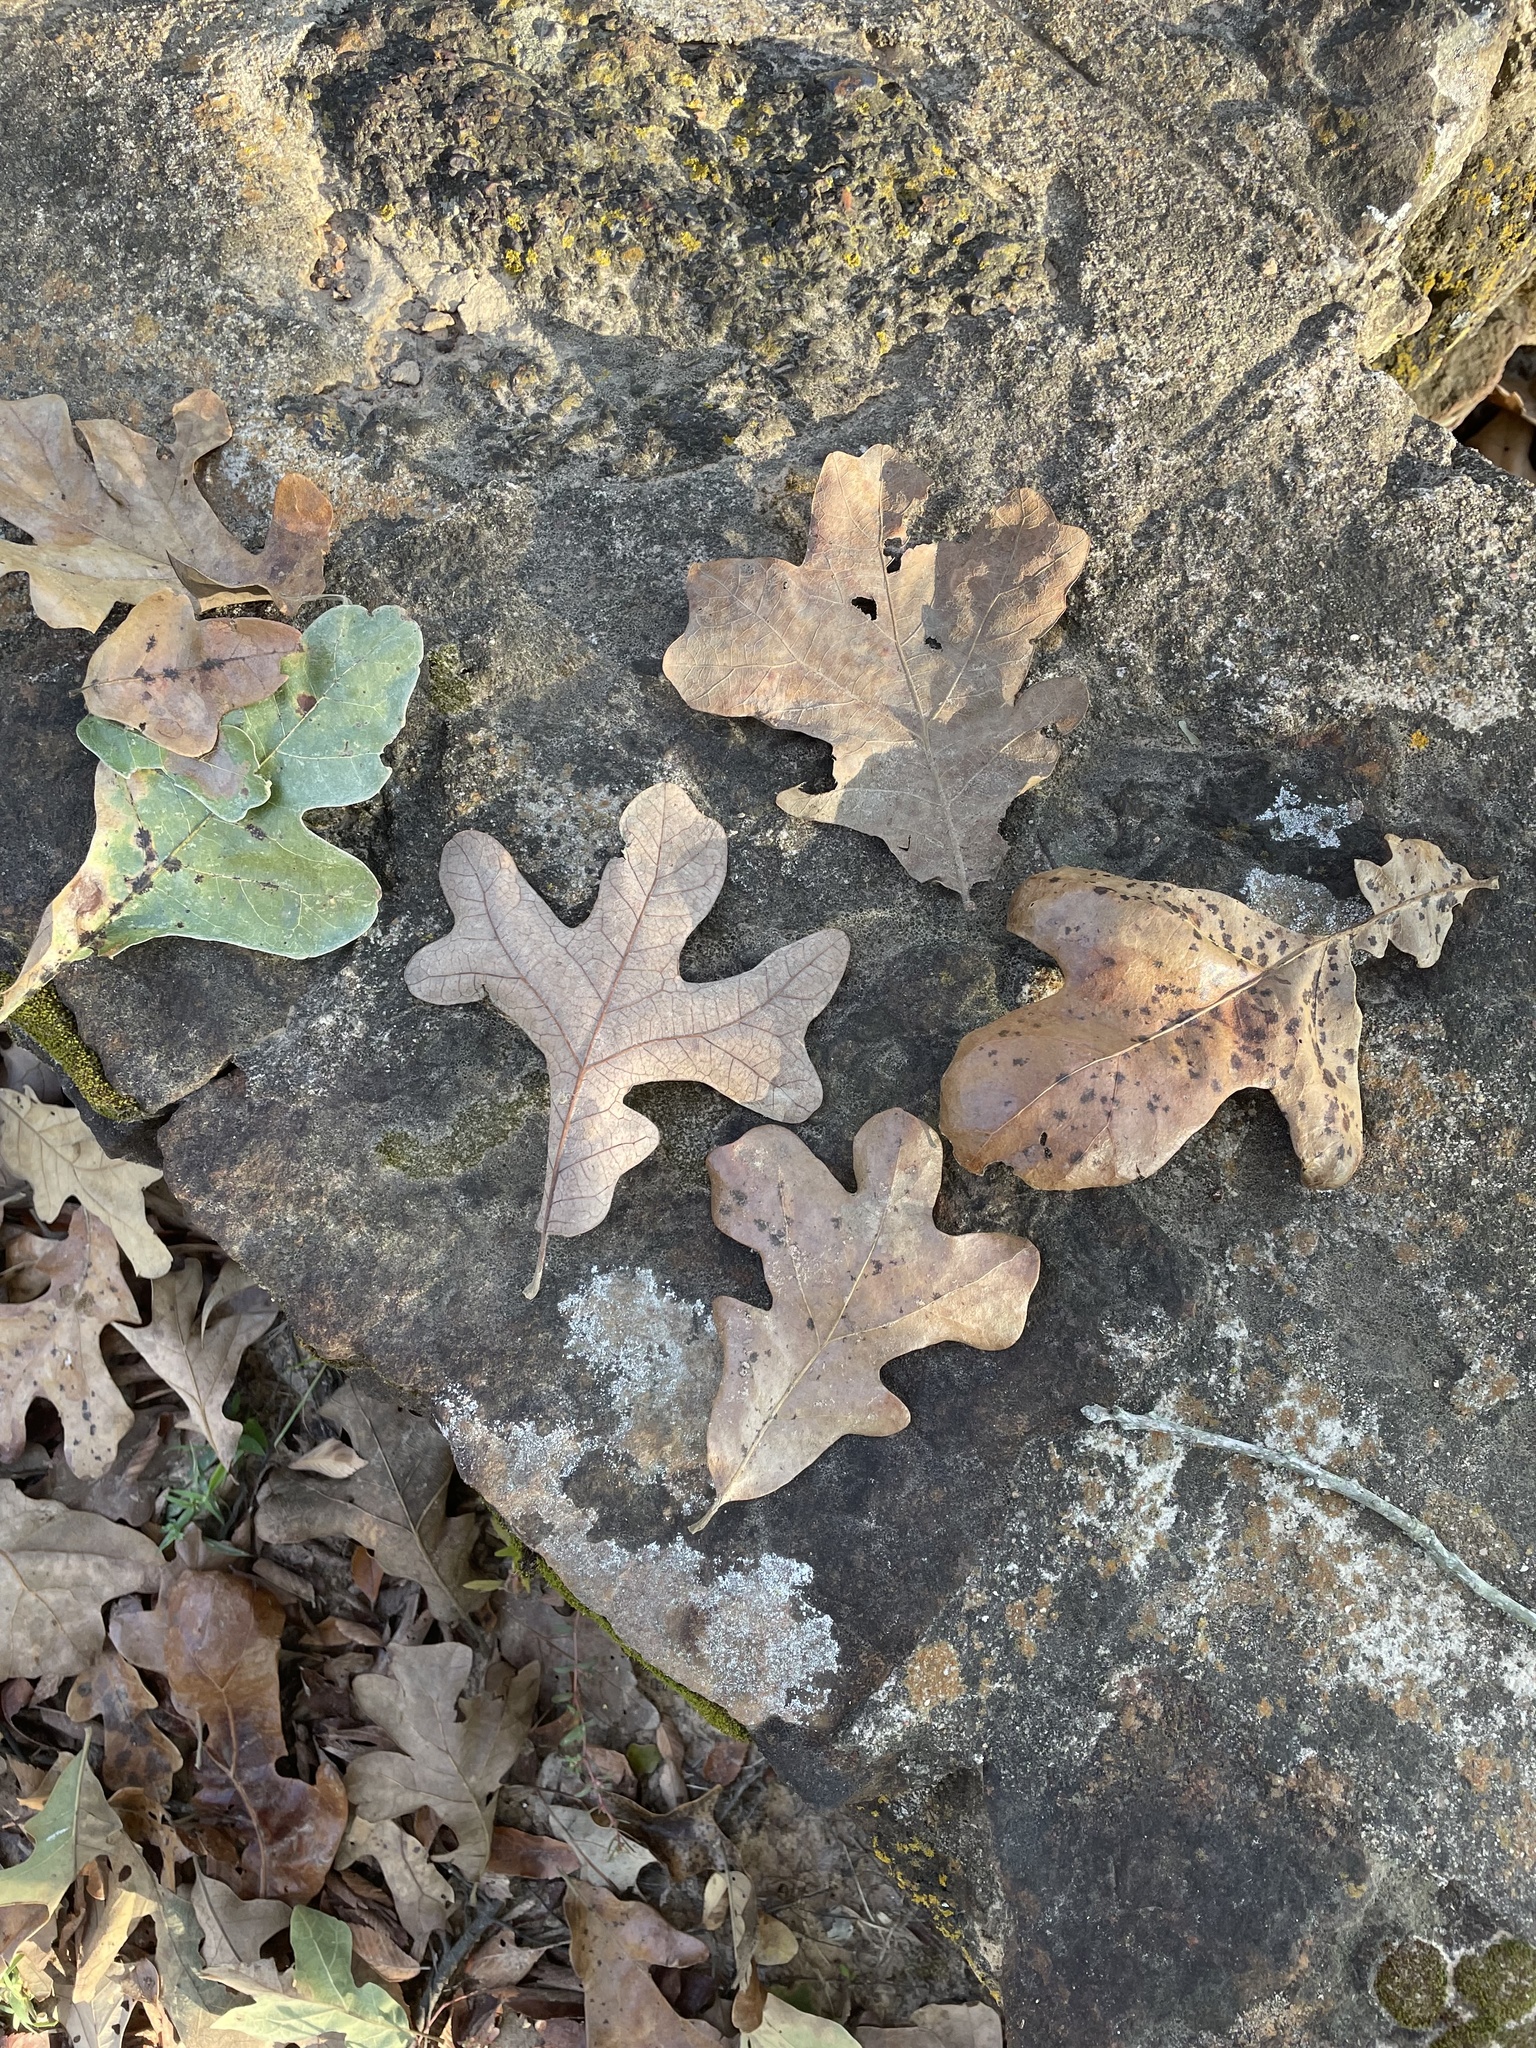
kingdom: Plantae
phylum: Tracheophyta
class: Magnoliopsida
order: Fagales
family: Fagaceae
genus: Quercus
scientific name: Quercus stellata
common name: Post oak
